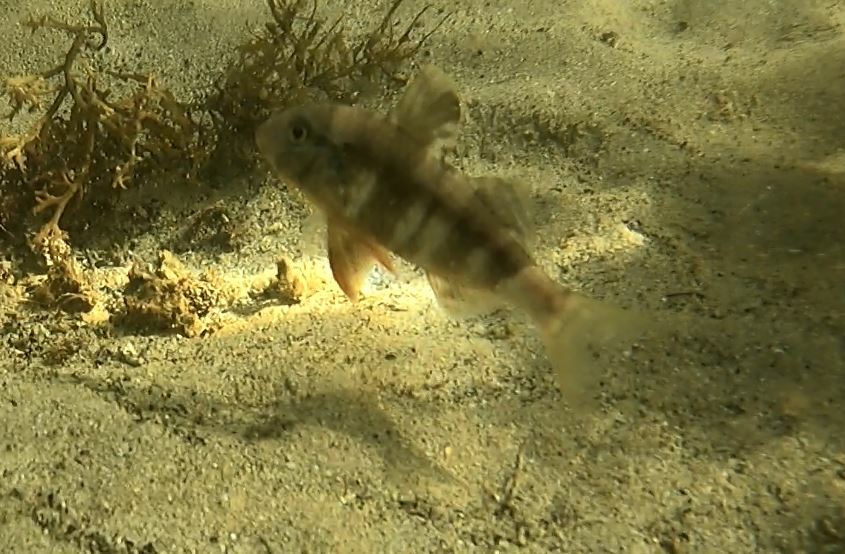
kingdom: Animalia
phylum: Chordata
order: Perciformes
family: Mullidae
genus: Upeneichthys
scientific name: Upeneichthys lineatus
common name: Red mullet
